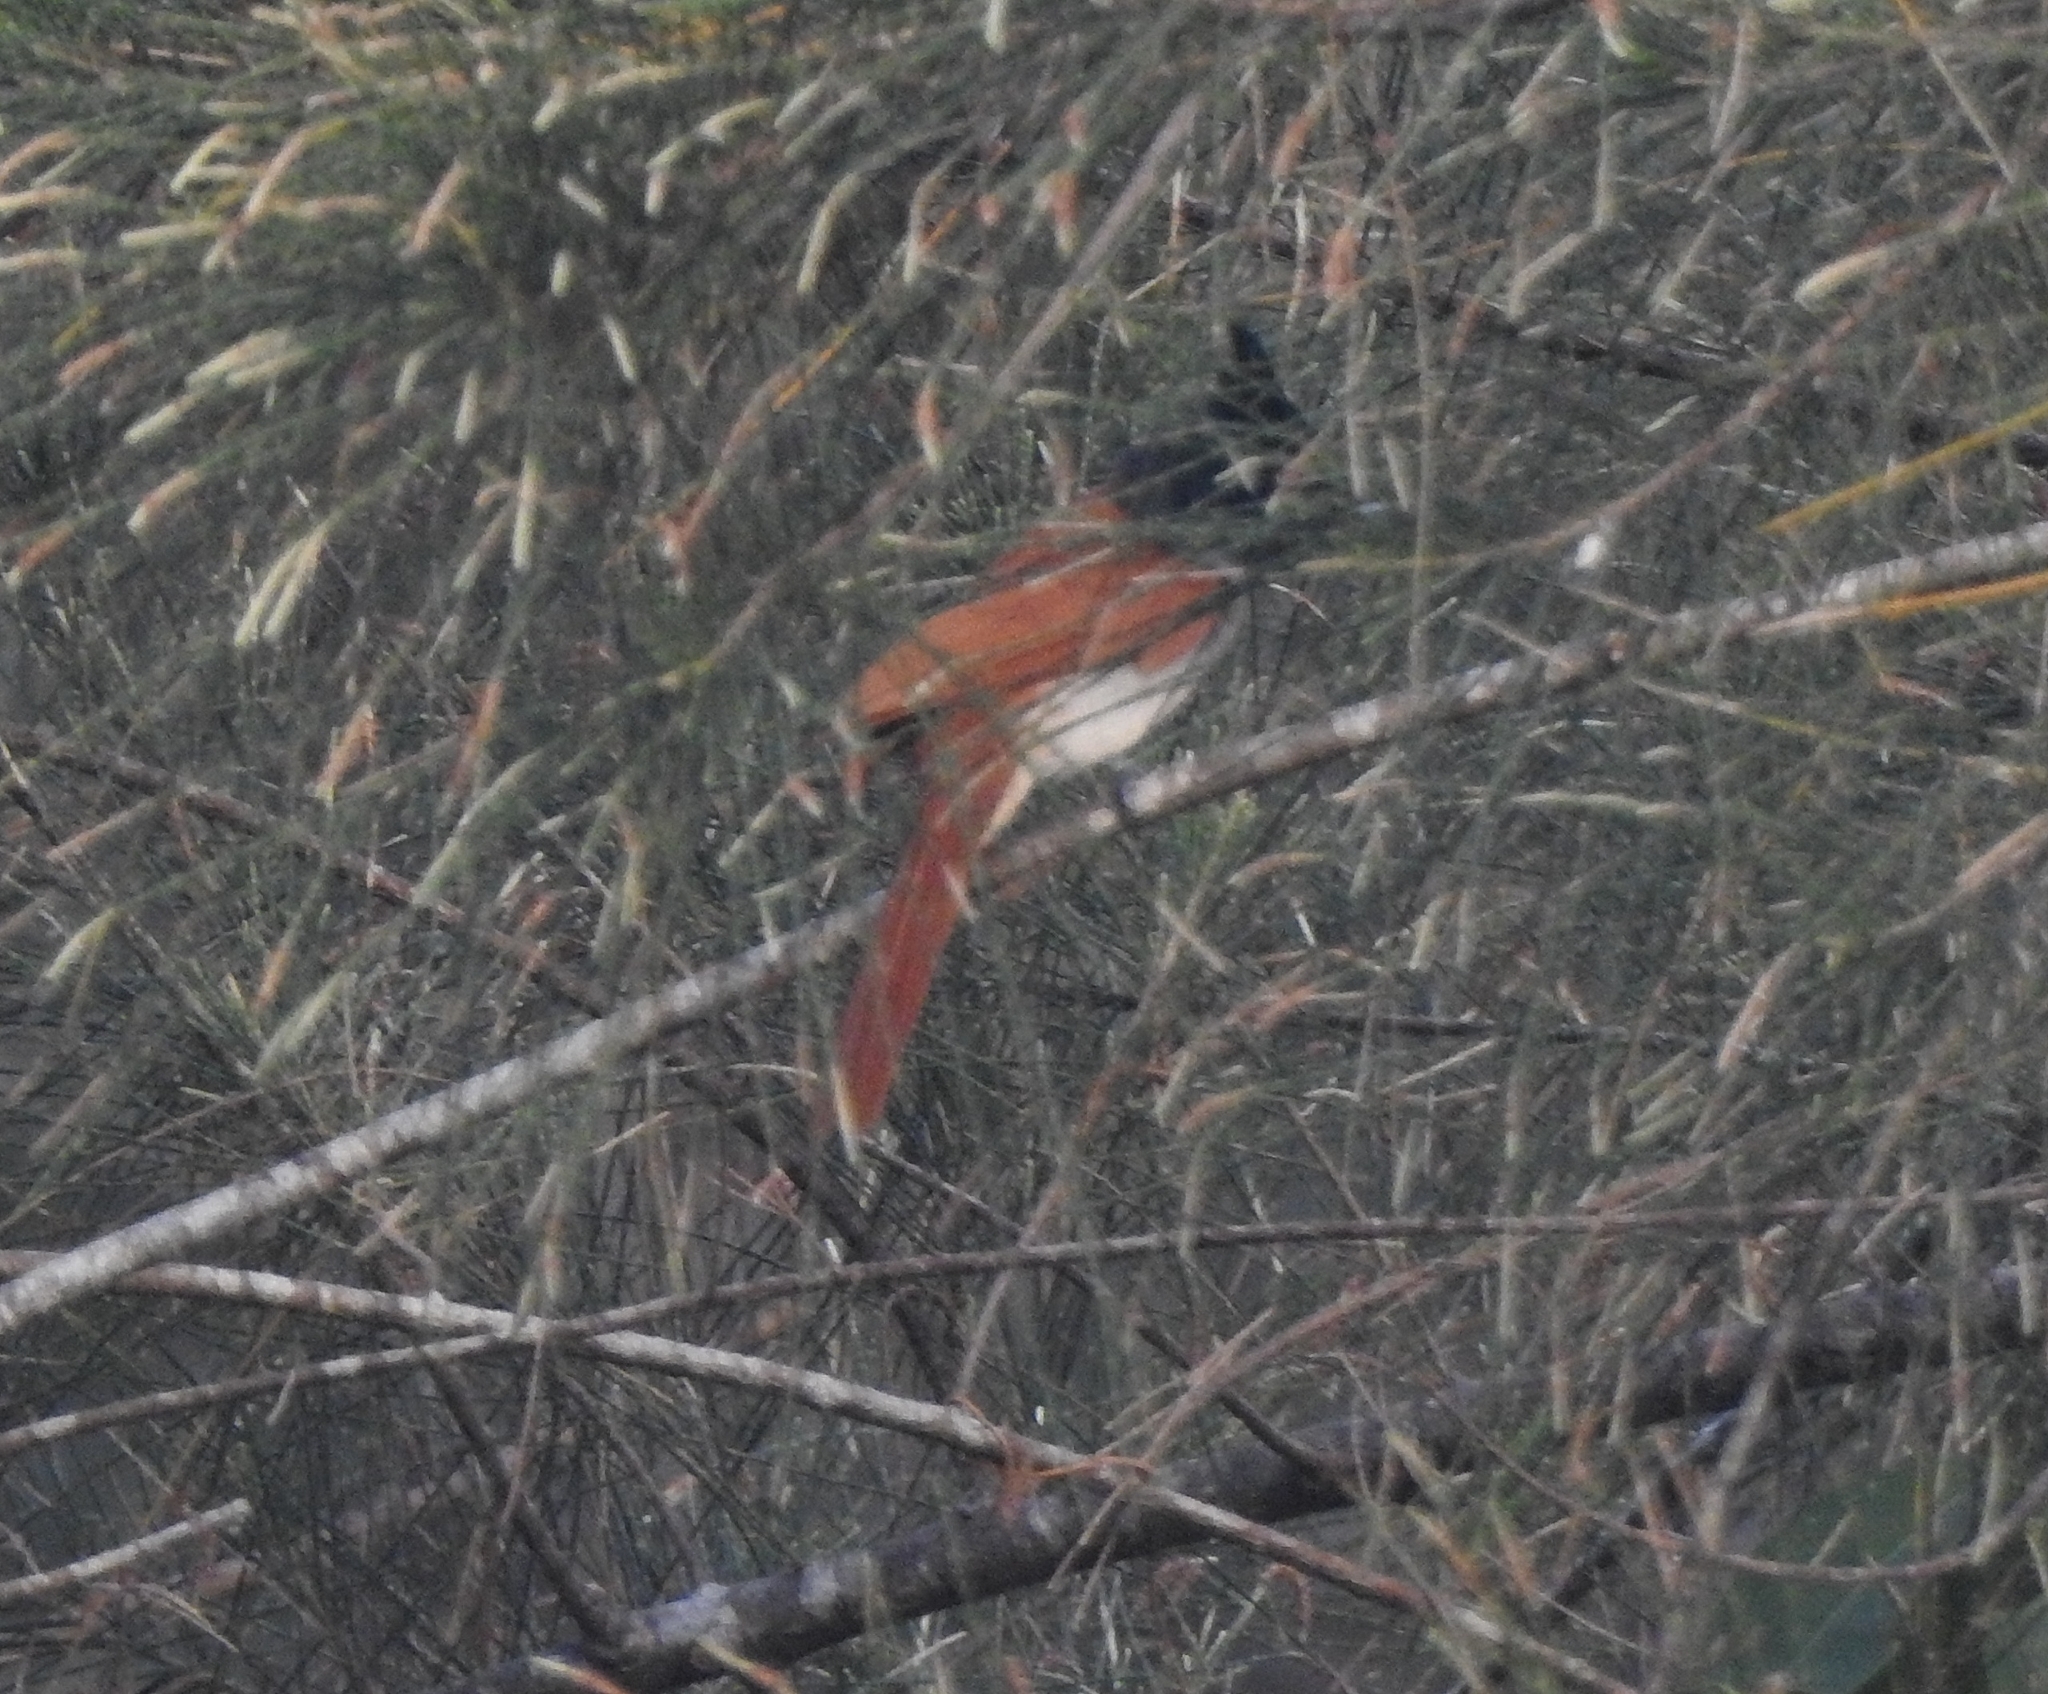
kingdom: Animalia
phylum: Chordata
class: Aves
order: Passeriformes
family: Monarchidae
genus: Terpsiphone
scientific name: Terpsiphone paradisi
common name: Indian paradise flycatcher
